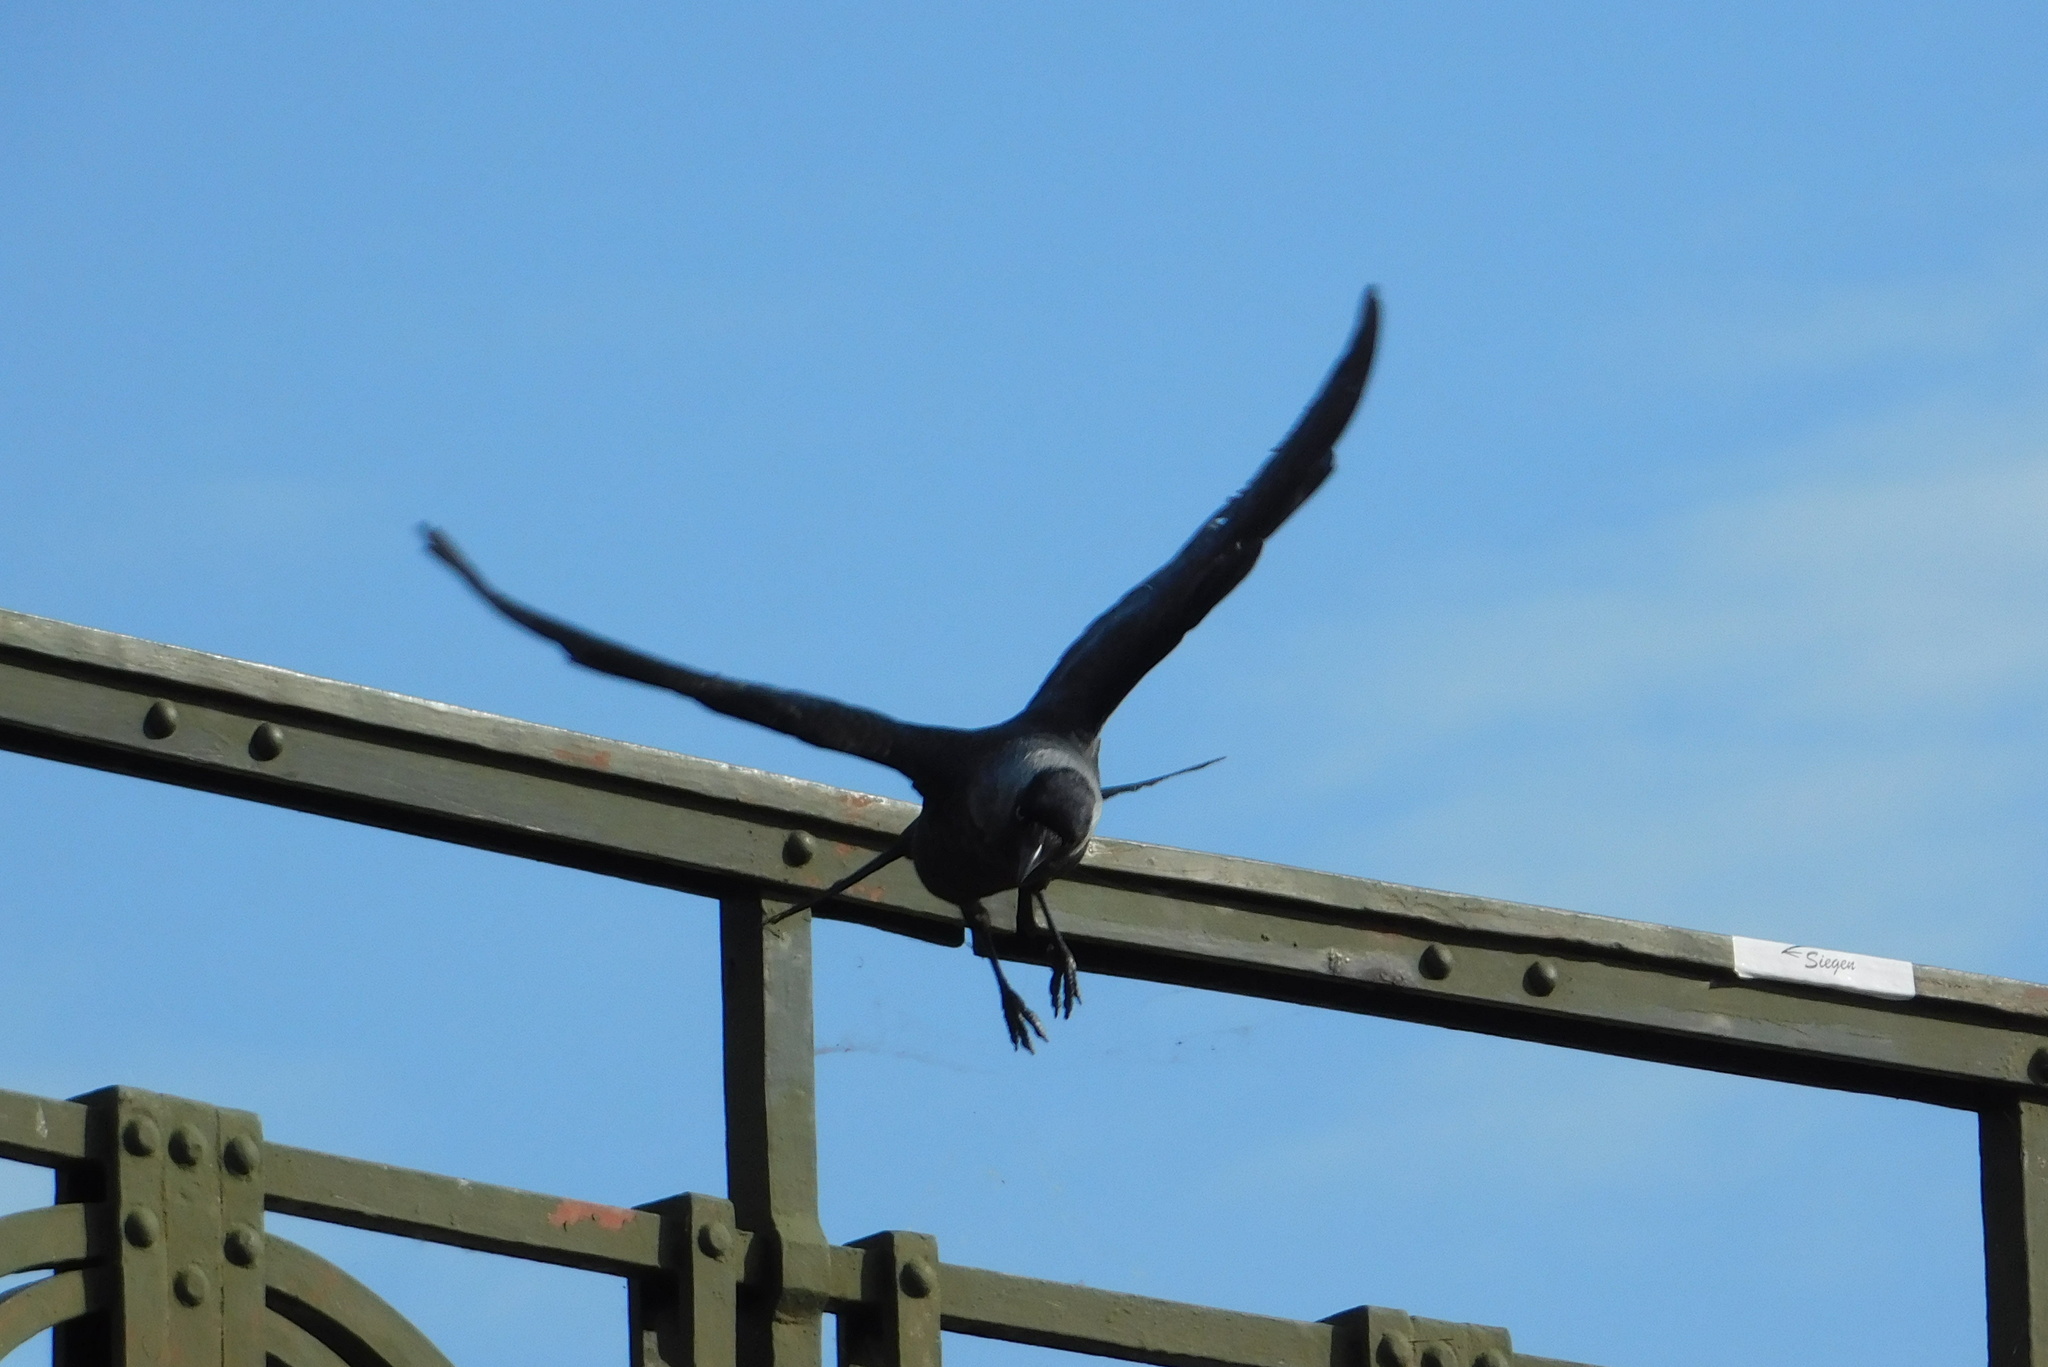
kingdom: Animalia
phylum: Chordata
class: Aves
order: Passeriformes
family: Corvidae
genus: Coloeus
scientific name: Coloeus monedula
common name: Western jackdaw
